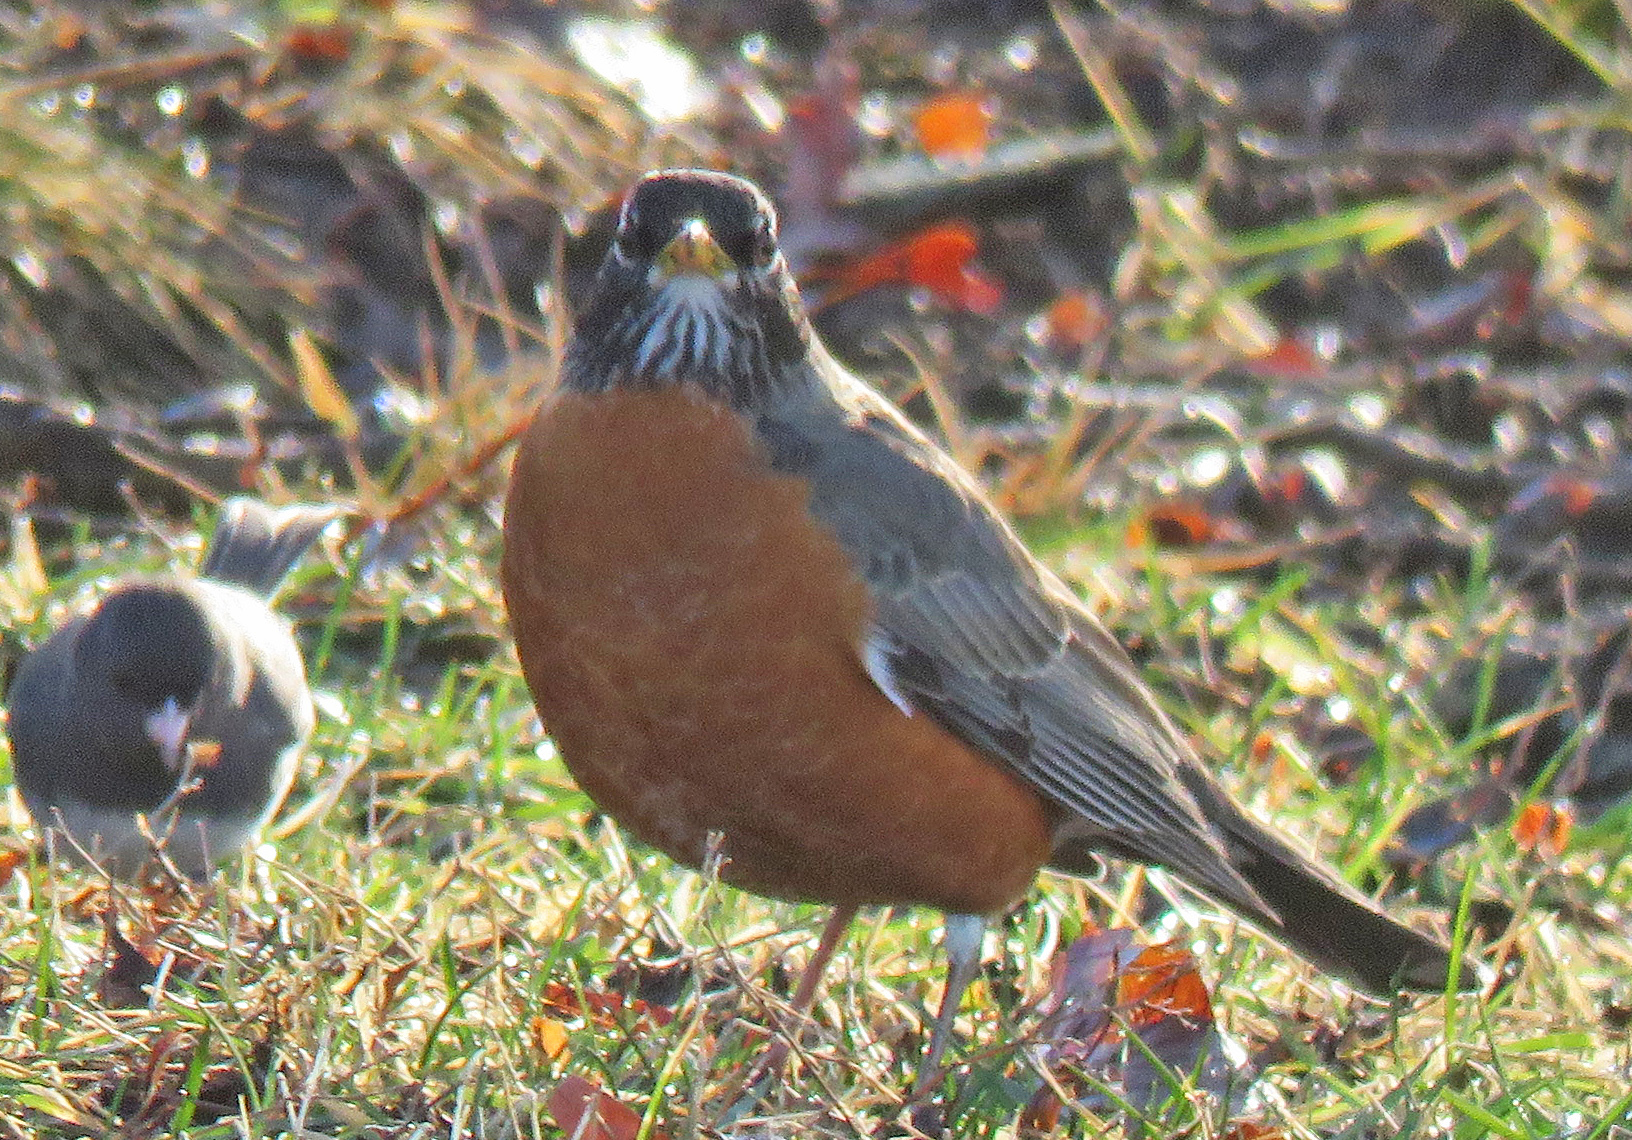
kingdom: Animalia
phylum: Chordata
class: Aves
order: Passeriformes
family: Turdidae
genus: Turdus
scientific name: Turdus migratorius
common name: American robin
